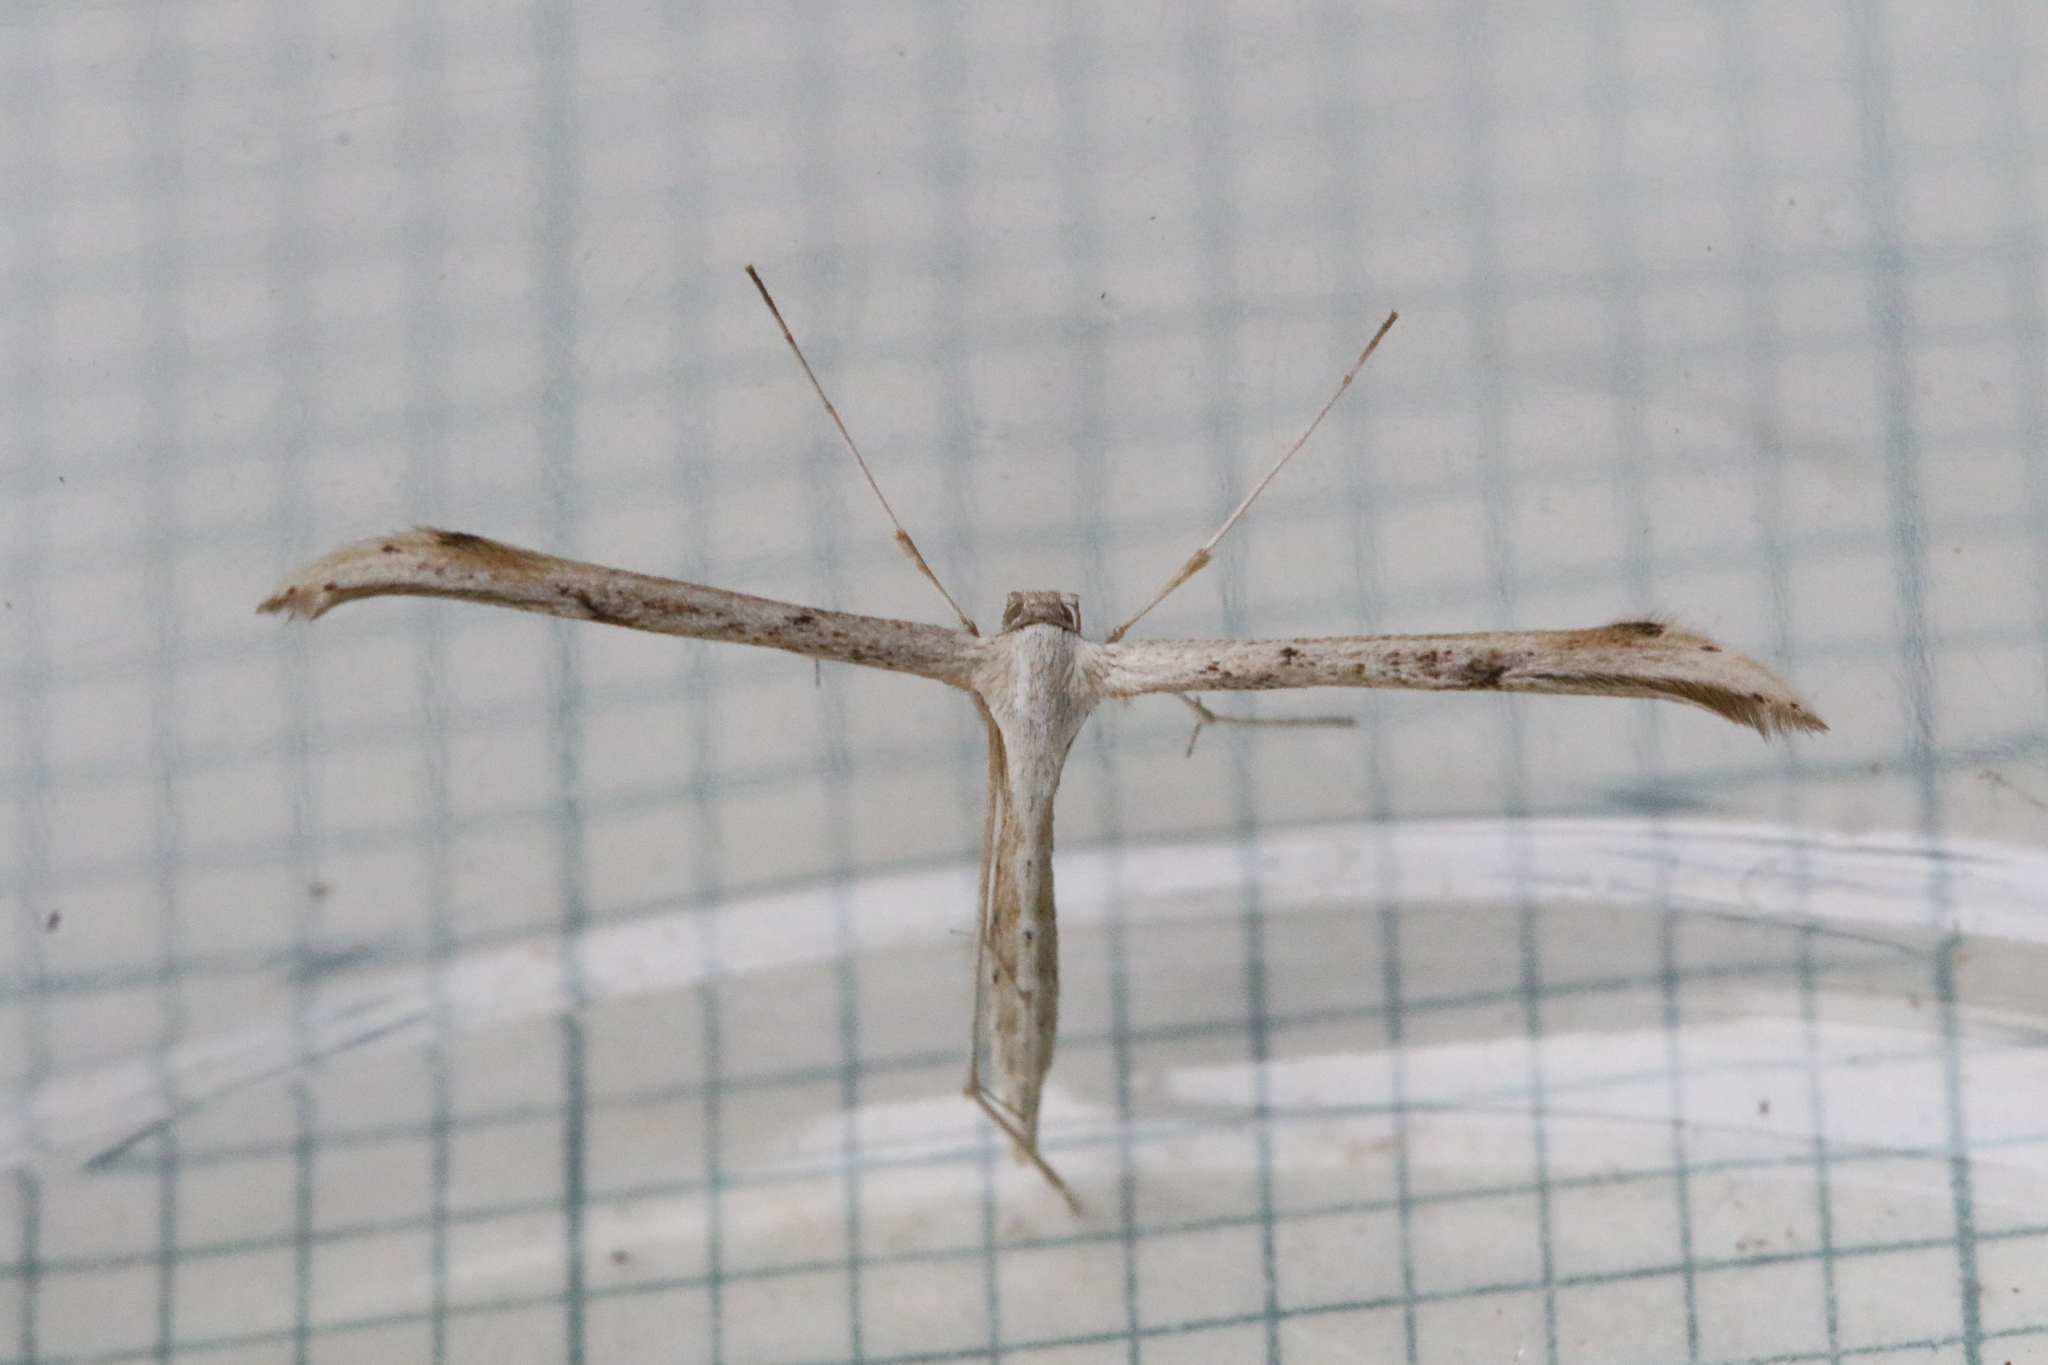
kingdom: Animalia
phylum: Arthropoda
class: Insecta
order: Lepidoptera
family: Pterophoridae
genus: Emmelina
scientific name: Emmelina monodactyla
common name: Common plume
